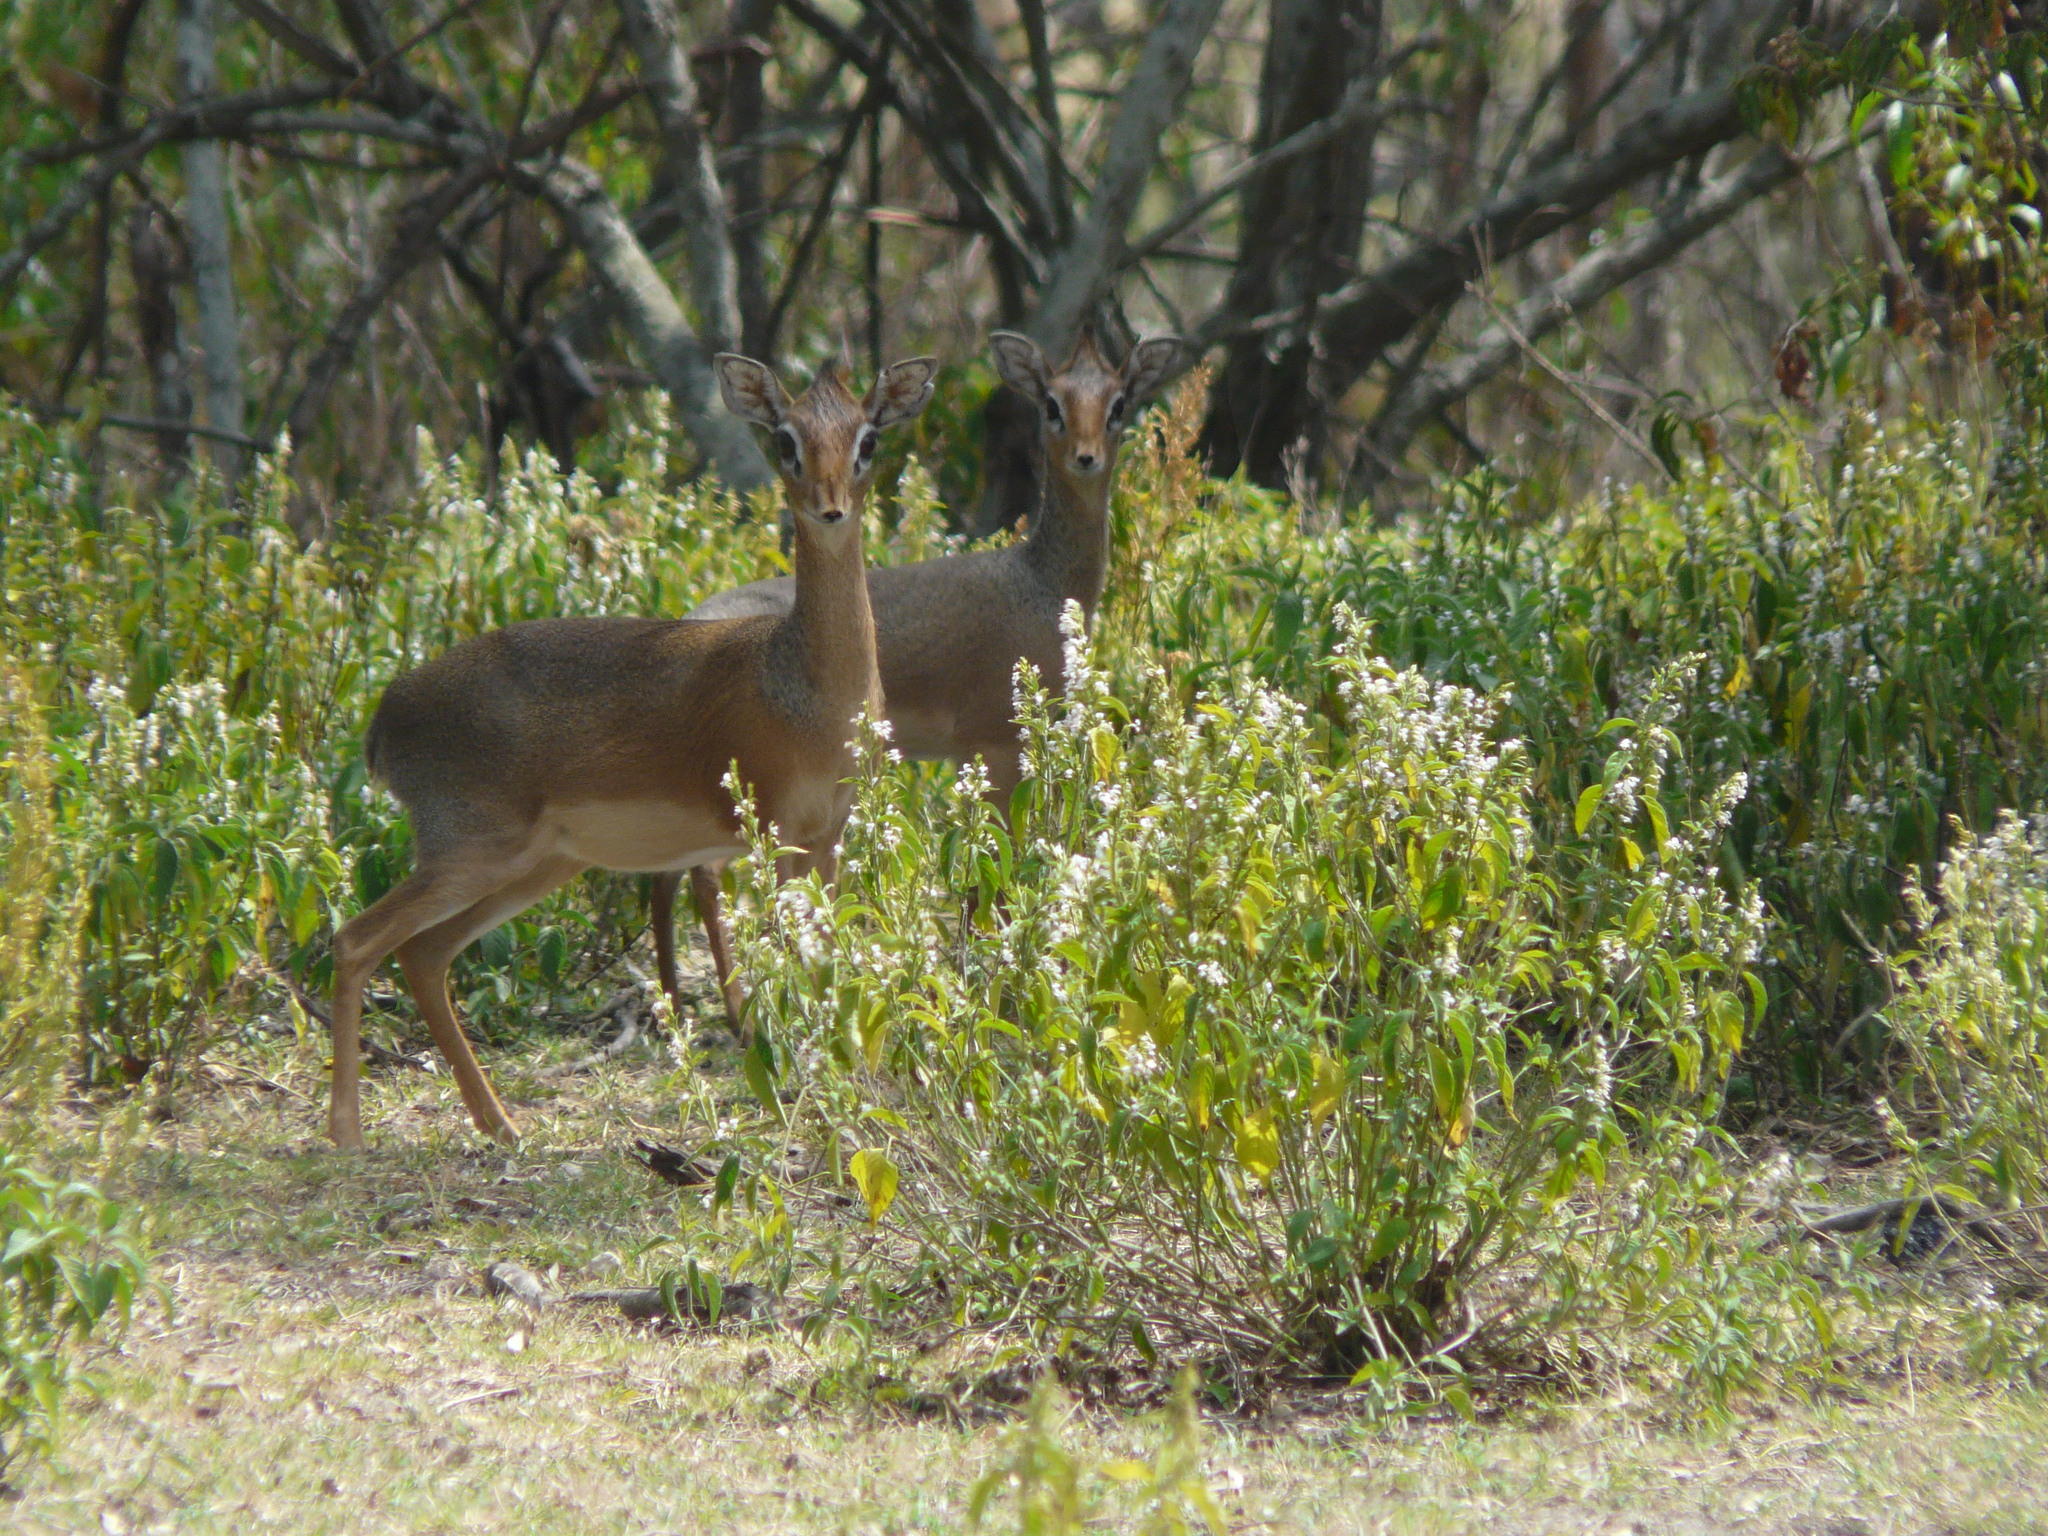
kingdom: Animalia
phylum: Chordata
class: Mammalia
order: Artiodactyla
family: Bovidae
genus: Madoqua
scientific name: Madoqua
